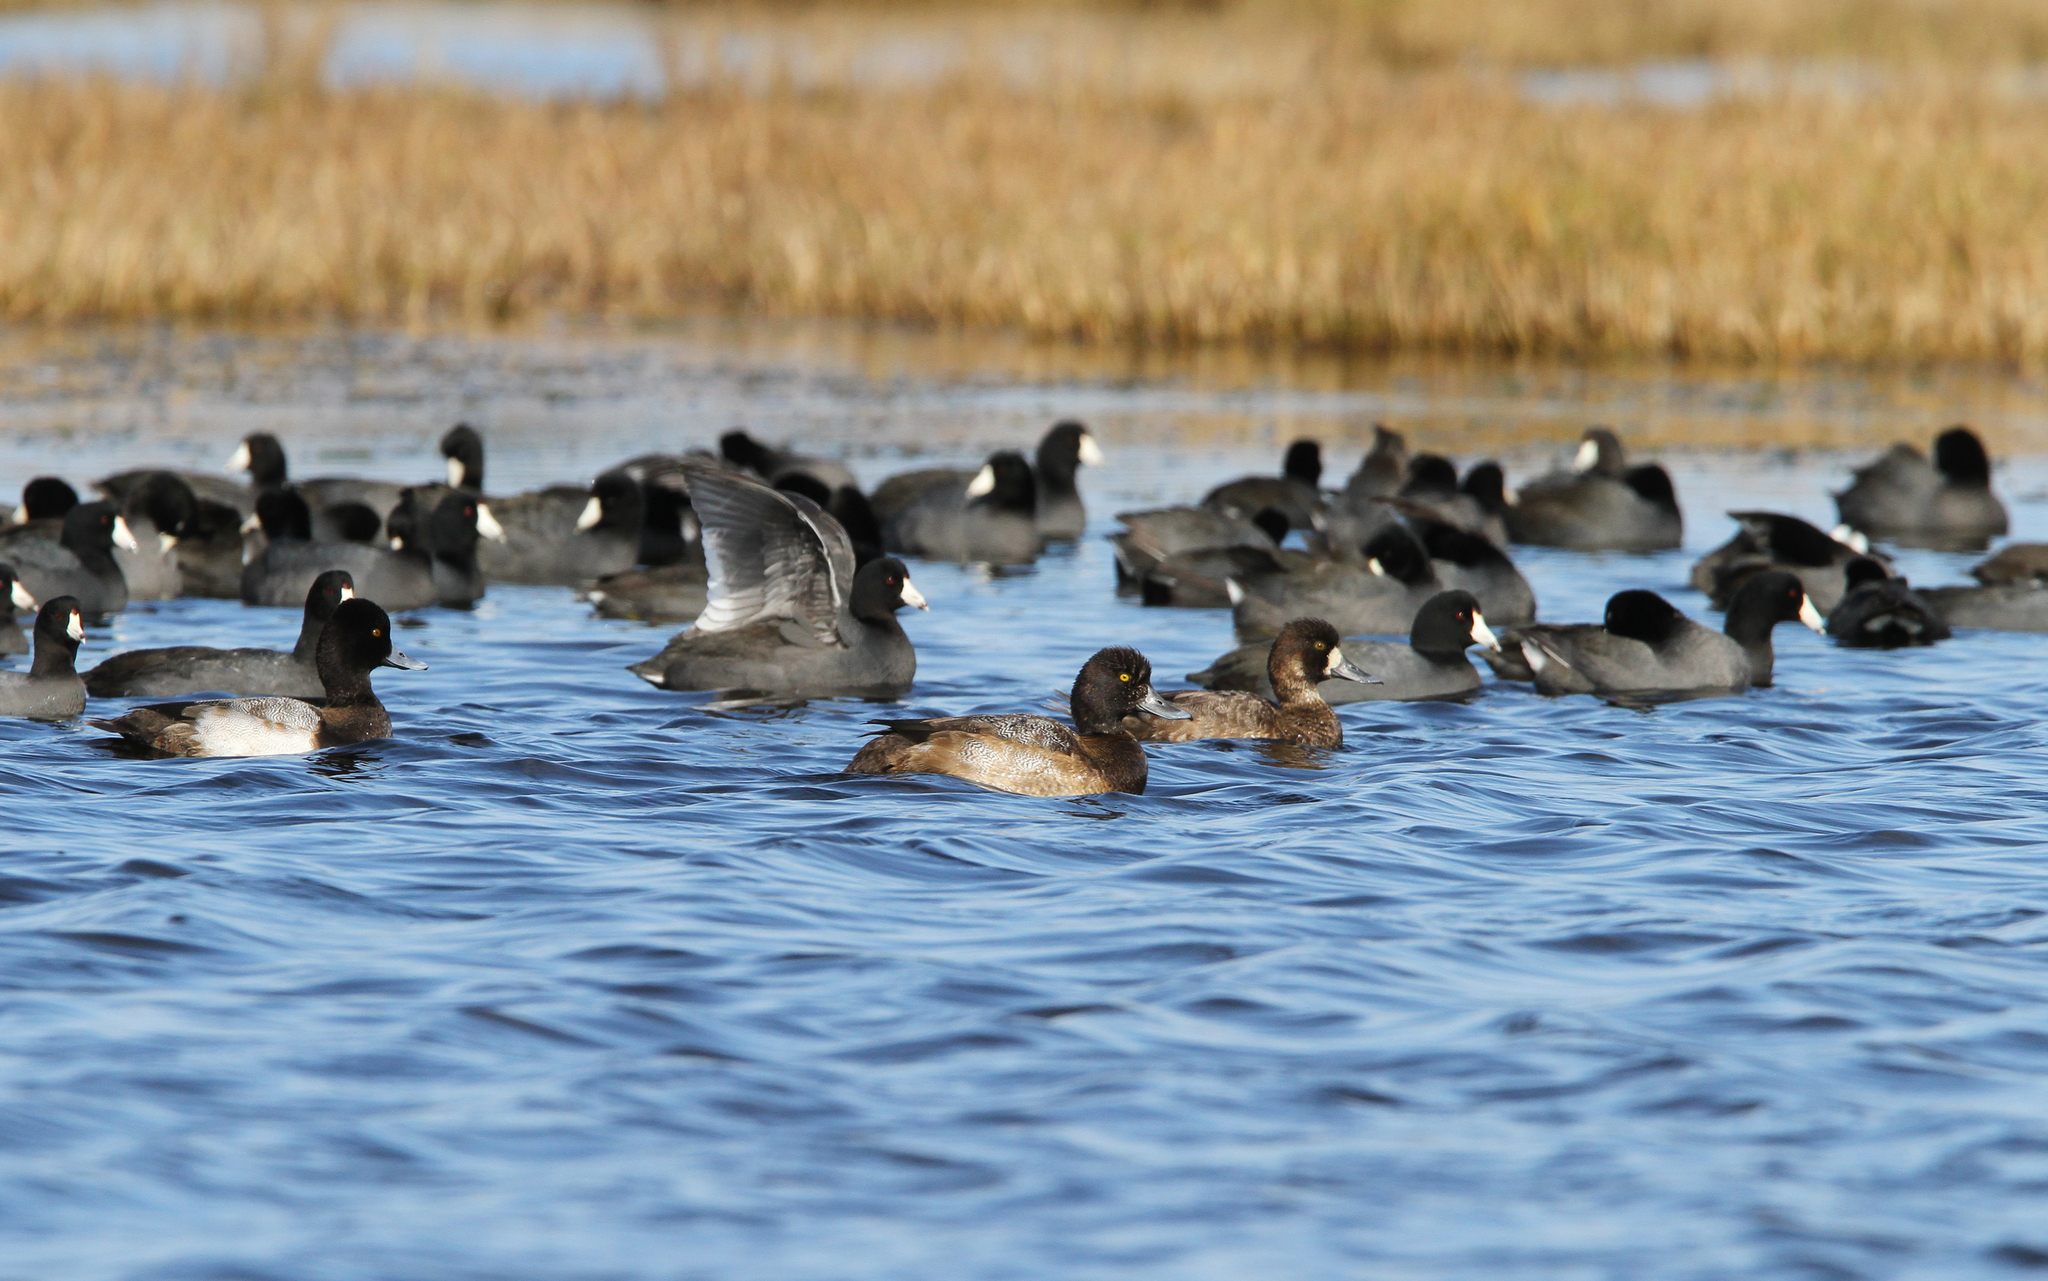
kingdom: Animalia
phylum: Chordata
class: Aves
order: Anseriformes
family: Anatidae
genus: Aythya
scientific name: Aythya affinis
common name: Lesser scaup
